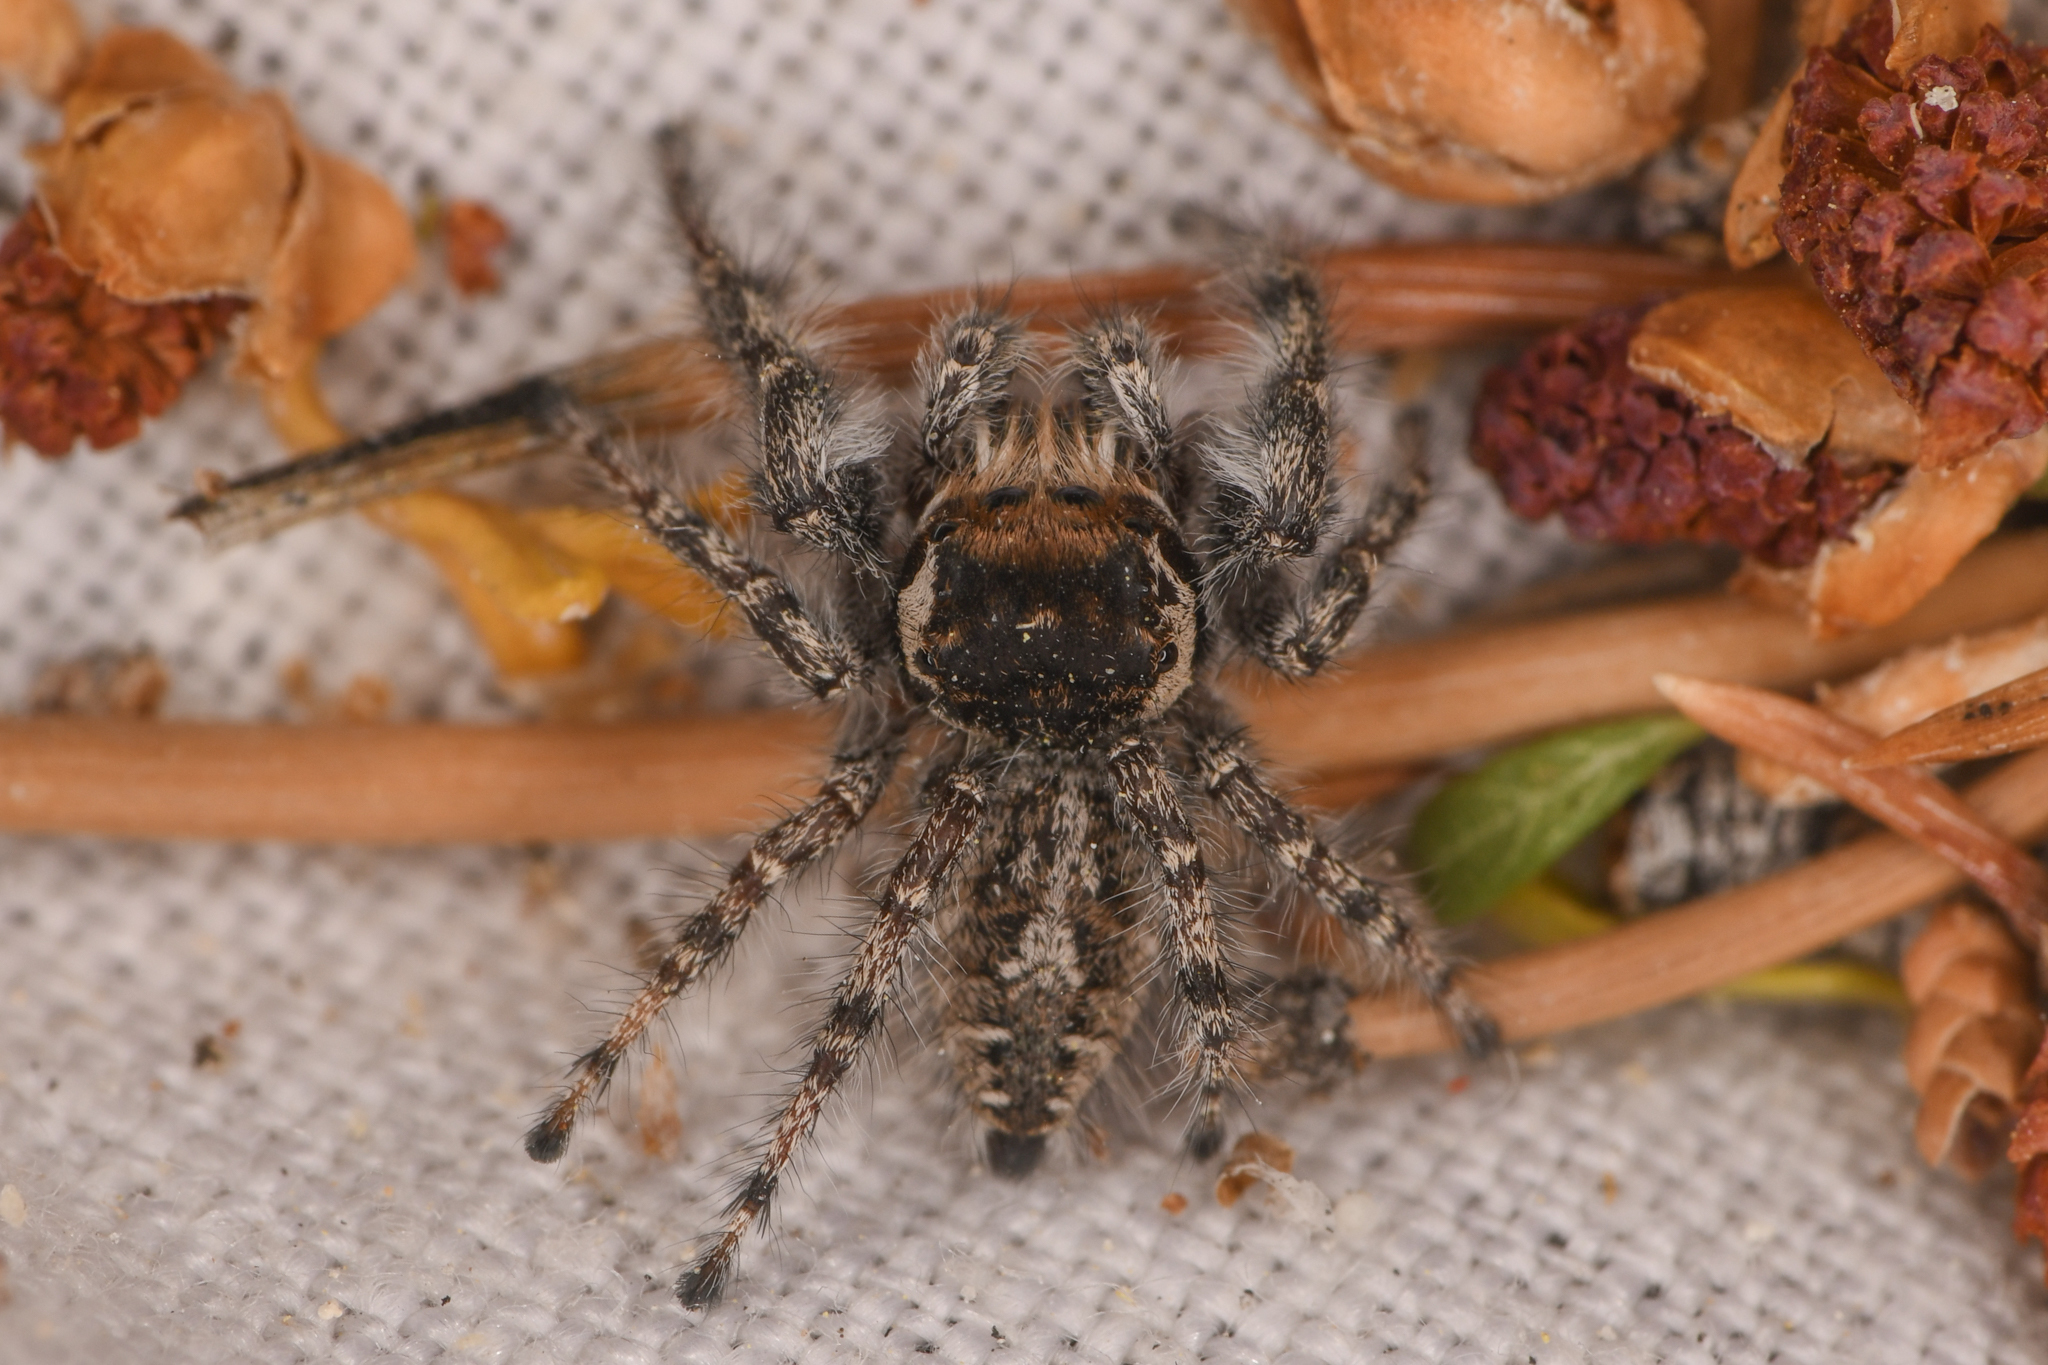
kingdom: Animalia
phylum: Arthropoda
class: Arachnida
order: Araneae
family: Salticidae
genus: Phidippus
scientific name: Phidippus asotus
